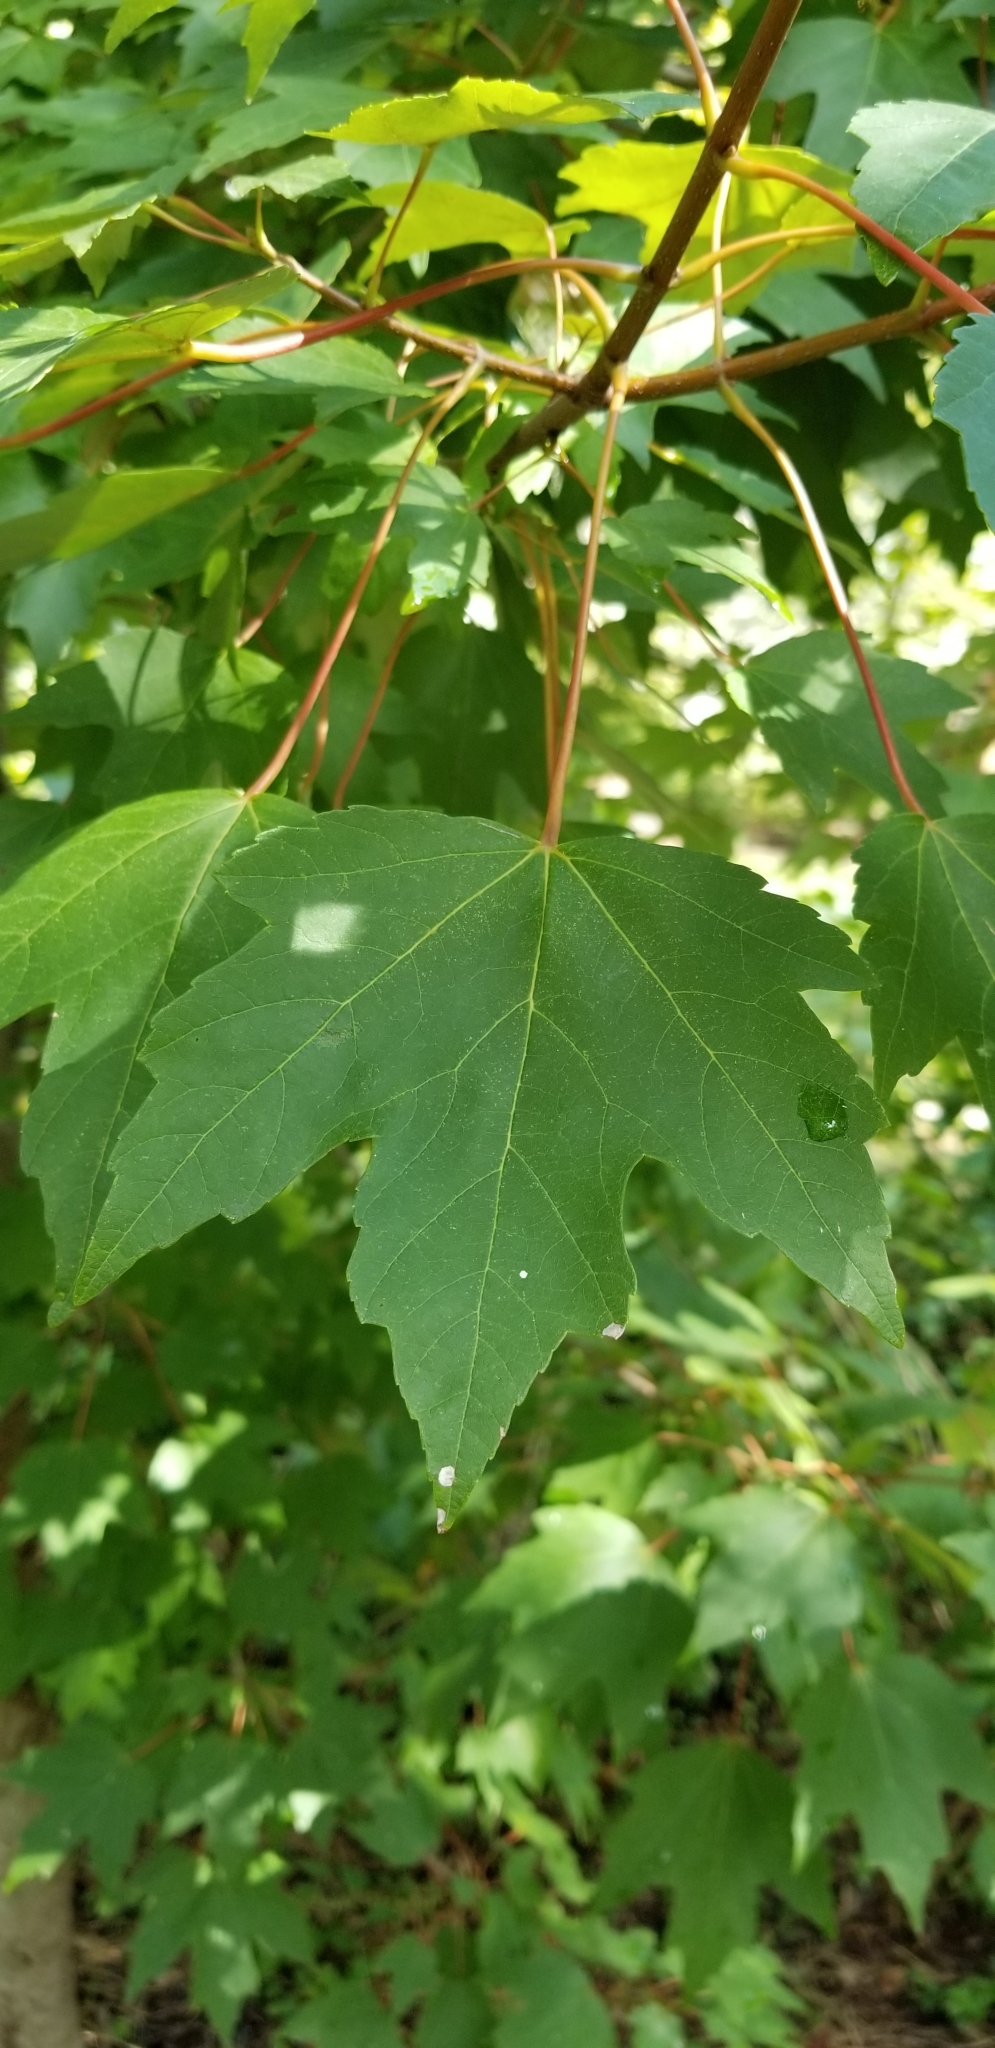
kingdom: Plantae
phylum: Tracheophyta
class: Magnoliopsida
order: Sapindales
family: Sapindaceae
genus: Acer
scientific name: Acer rubrum
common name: Red maple
